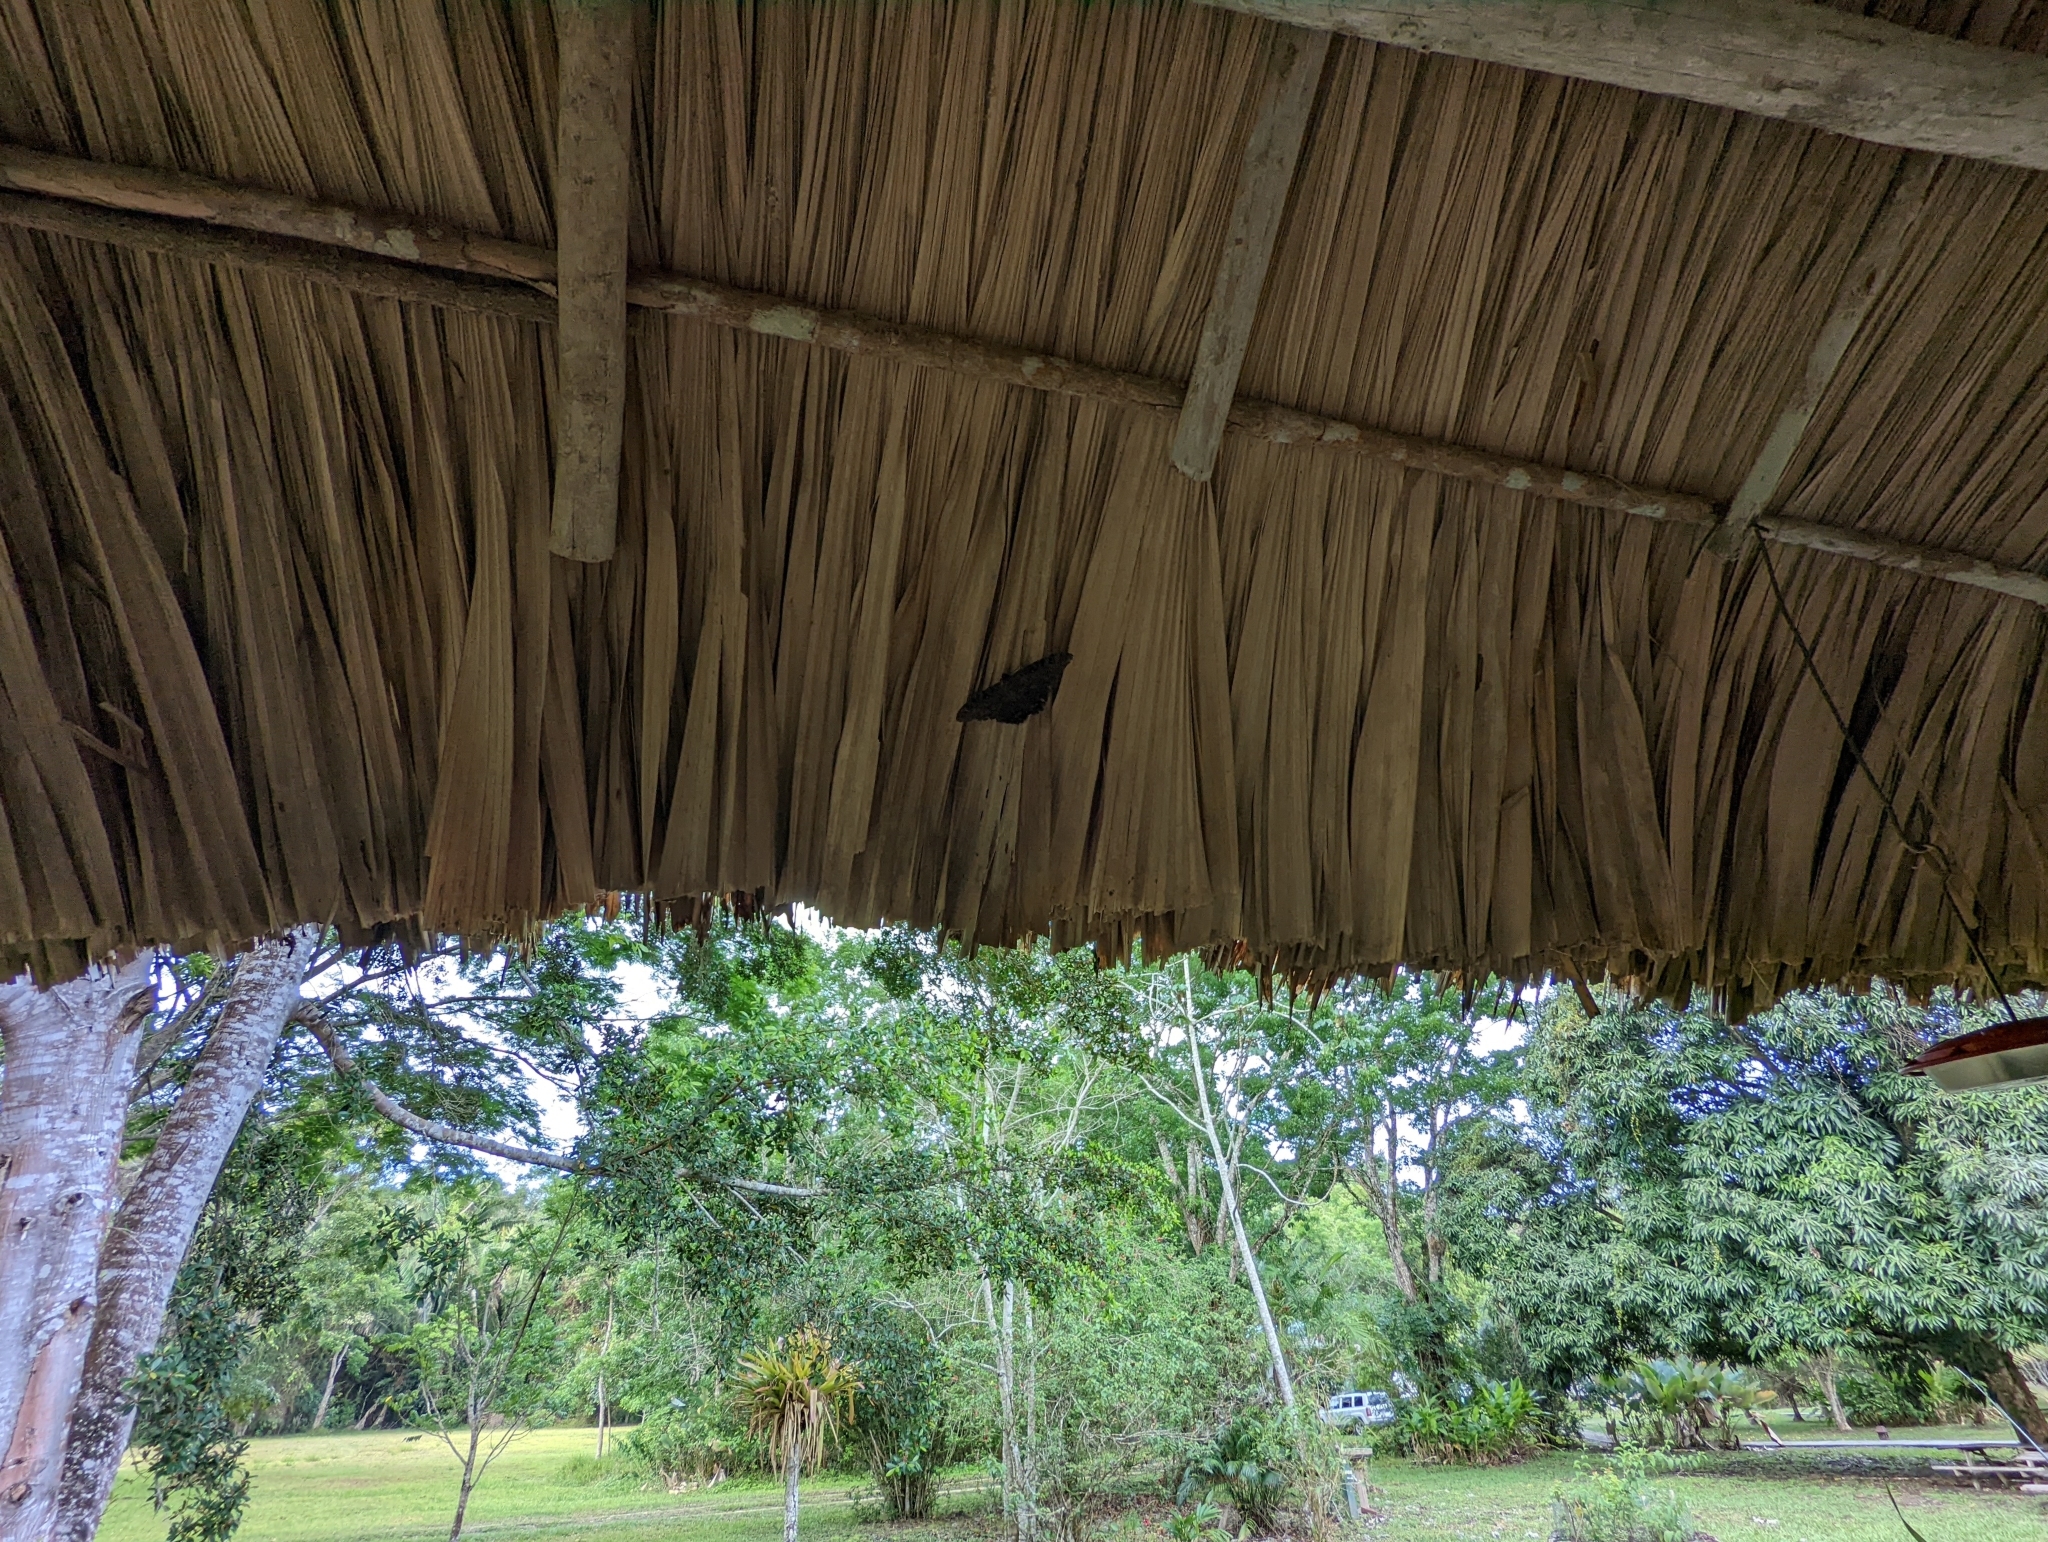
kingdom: Animalia
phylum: Arthropoda
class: Insecta
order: Lepidoptera
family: Erebidae
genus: Ascalapha
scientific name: Ascalapha odorata
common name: Black witch
